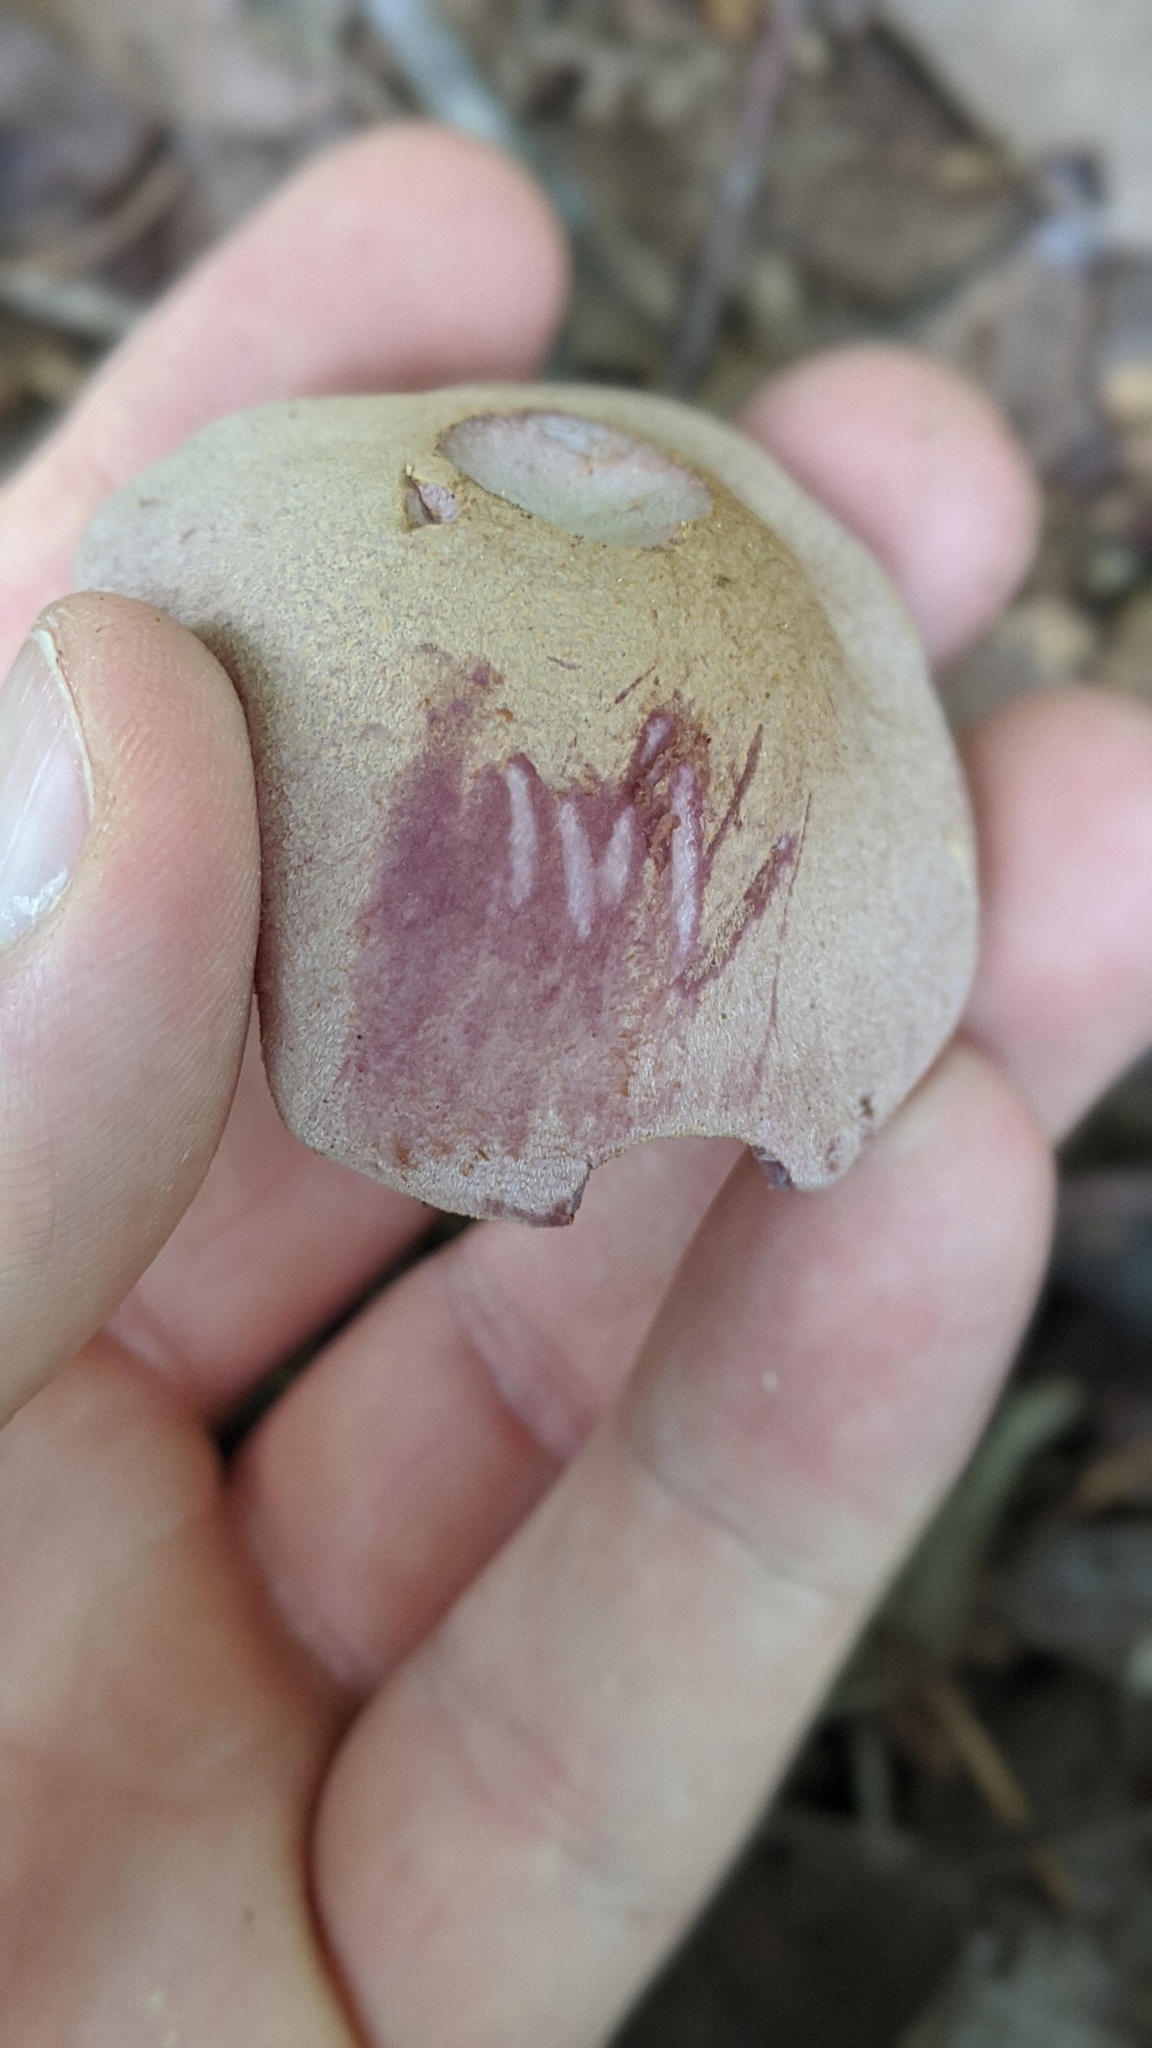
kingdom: Fungi
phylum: Basidiomycota
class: Agaricomycetes
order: Agaricales
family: Hydnangiaceae
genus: Laccaria
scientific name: Laccaria ochropurpurea
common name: Purple laccaria
